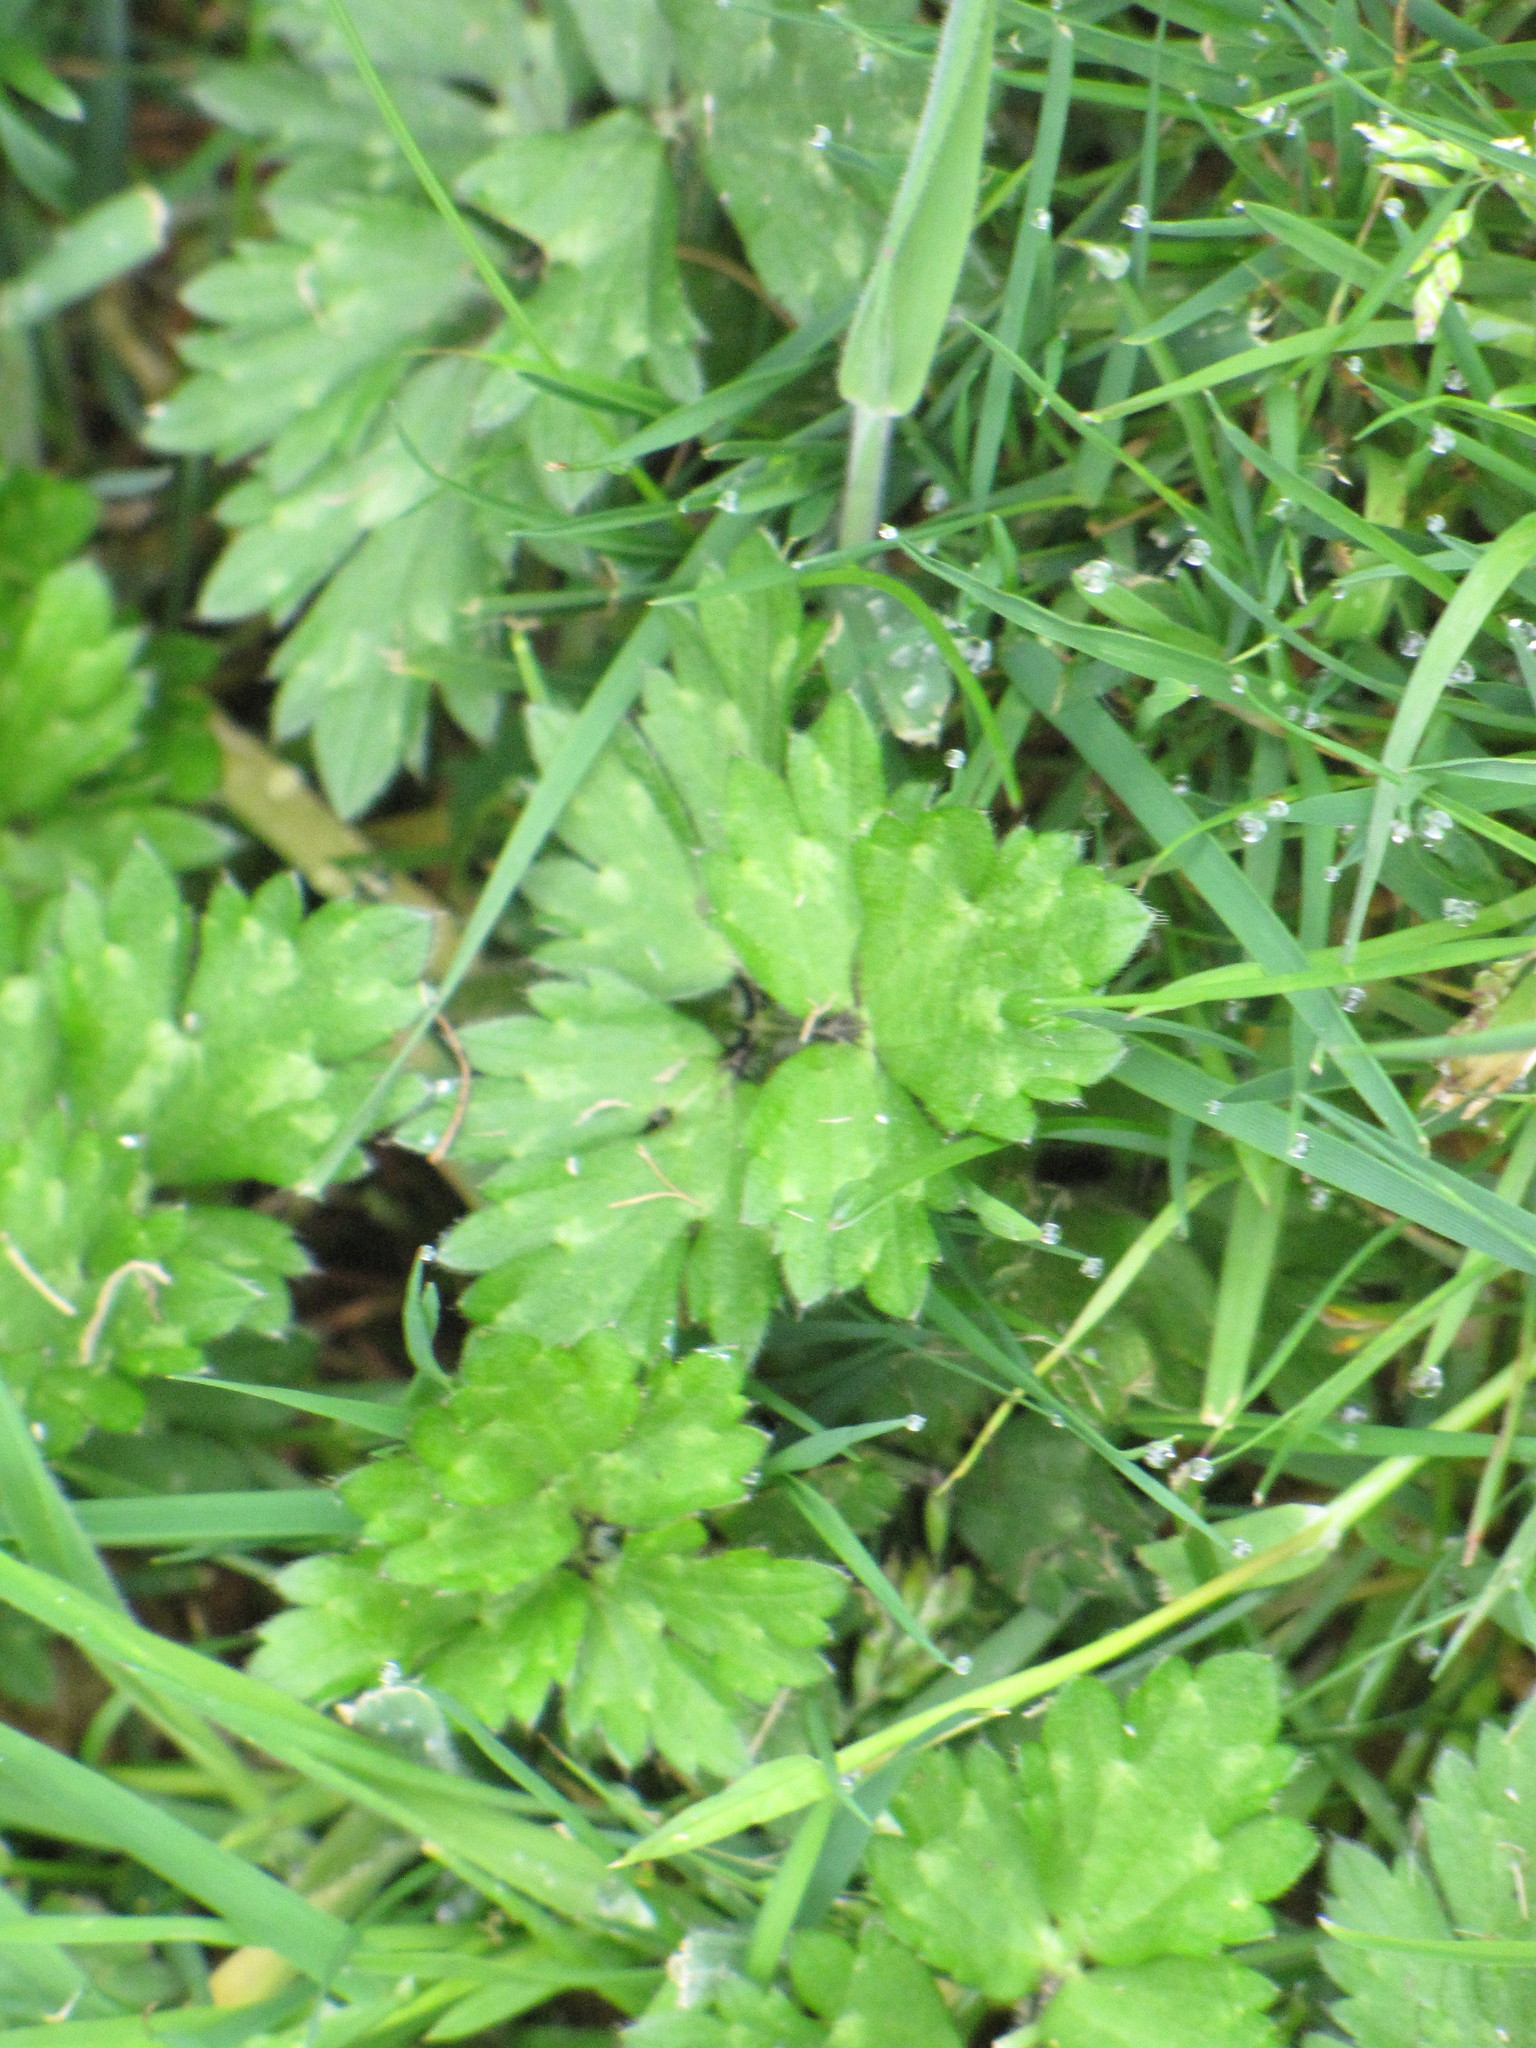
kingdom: Plantae
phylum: Tracheophyta
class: Magnoliopsida
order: Ranunculales
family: Ranunculaceae
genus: Ranunculus
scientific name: Ranunculus repens
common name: Creeping buttercup
